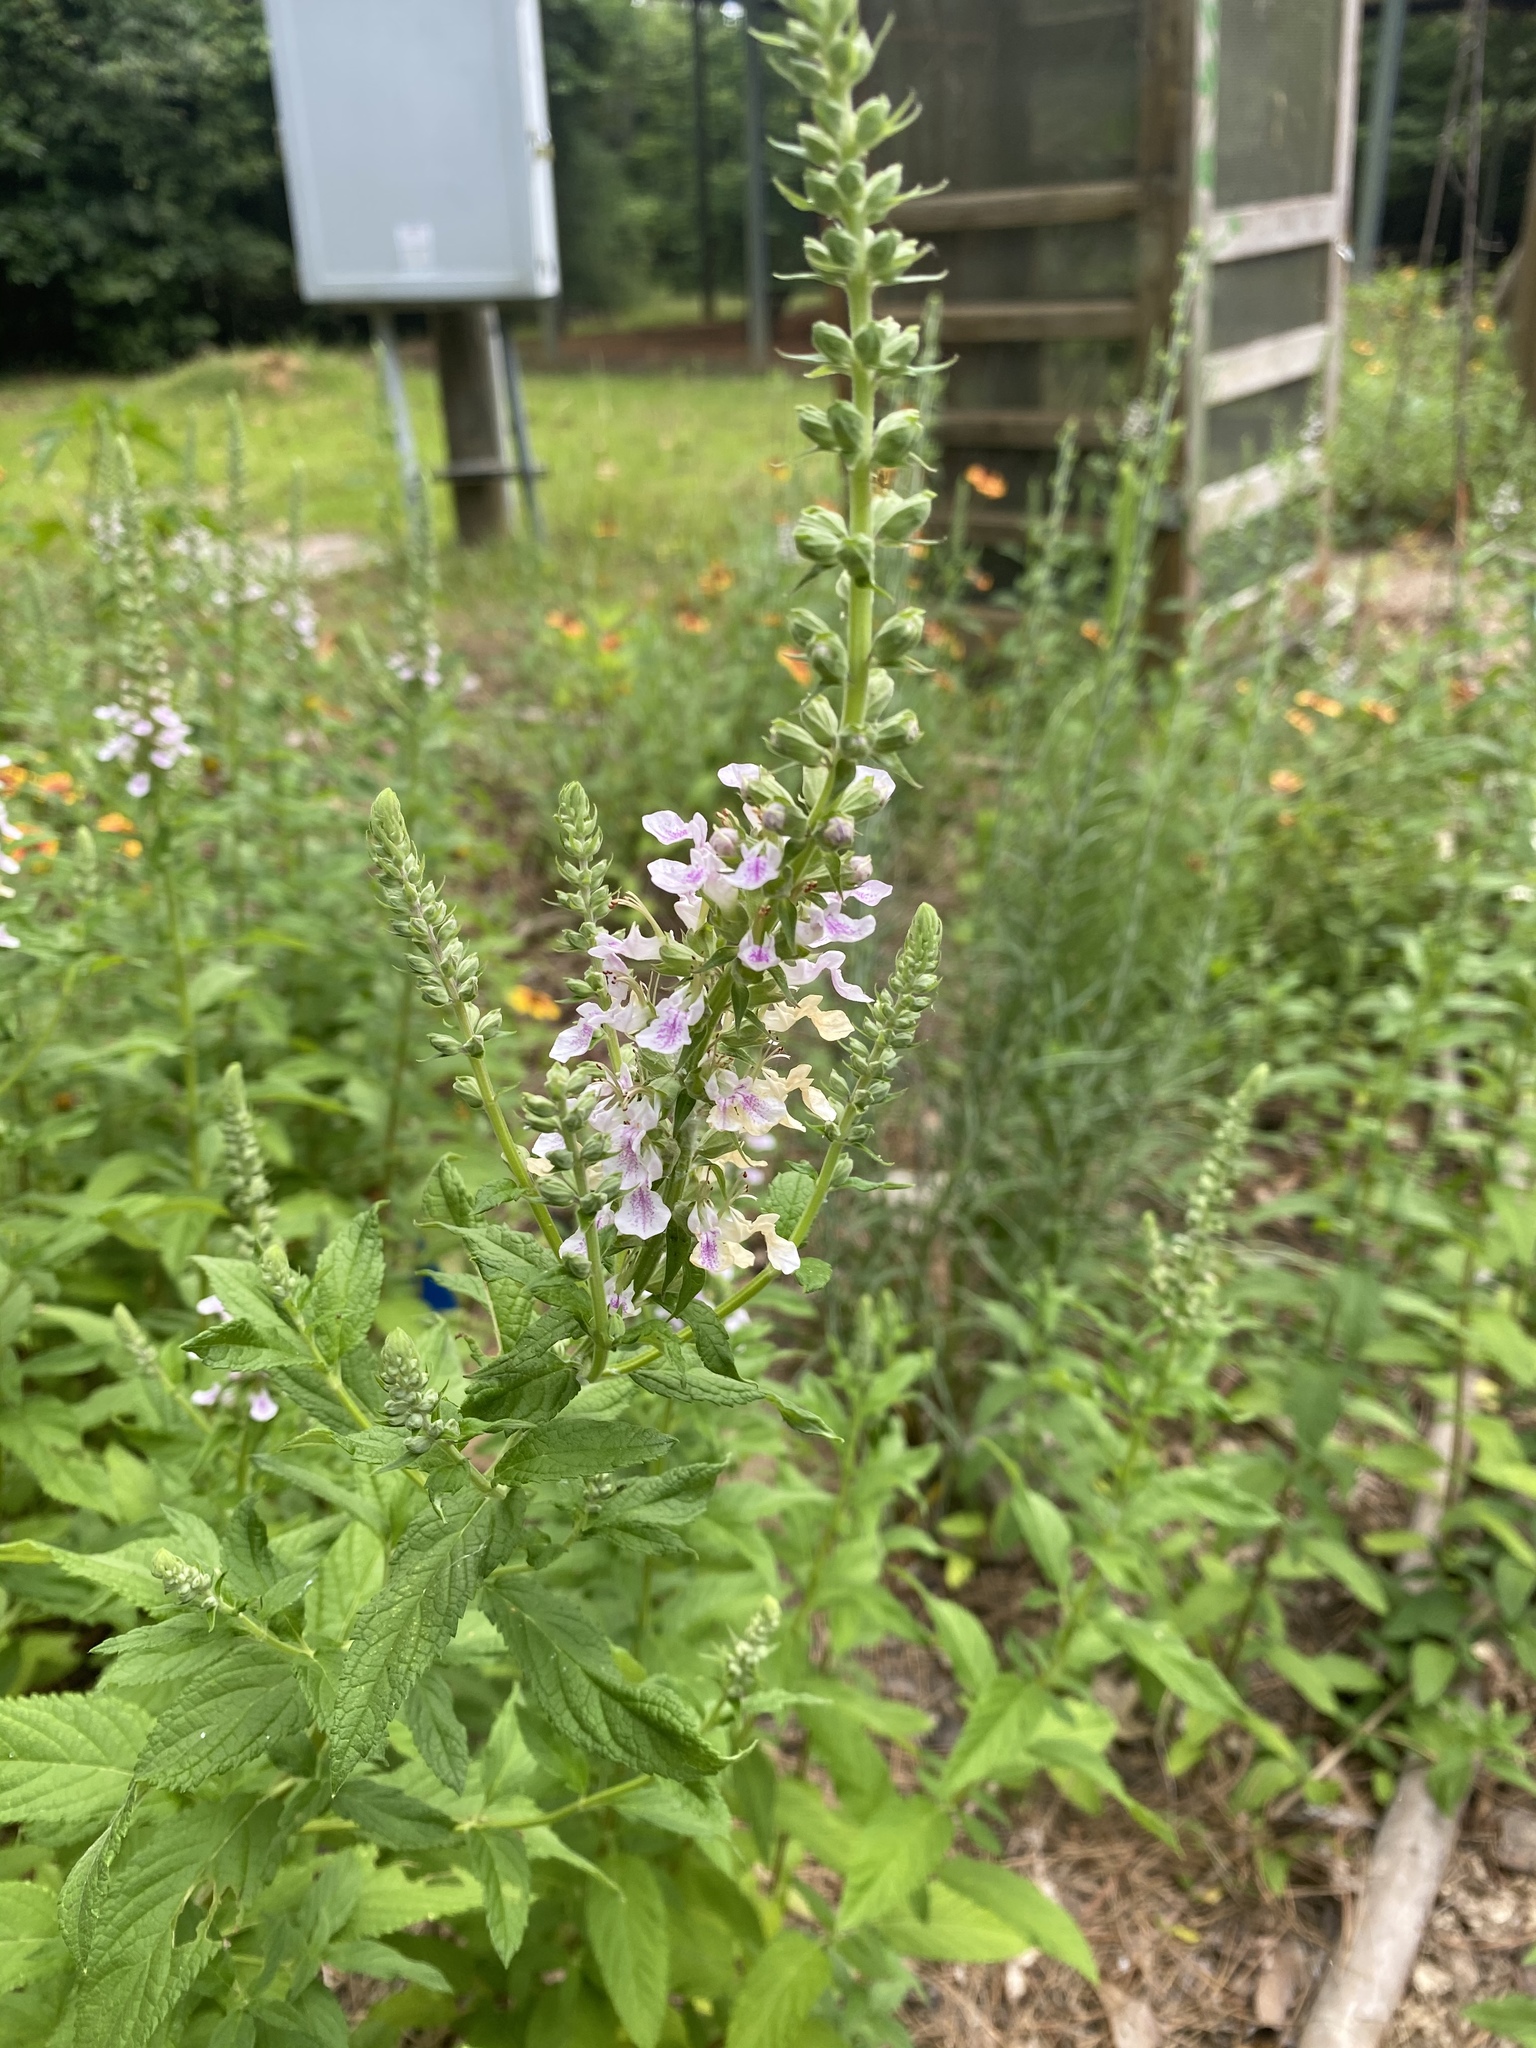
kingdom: Plantae
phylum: Tracheophyta
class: Magnoliopsida
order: Lamiales
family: Lamiaceae
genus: Teucrium
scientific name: Teucrium canadense
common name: American germander
